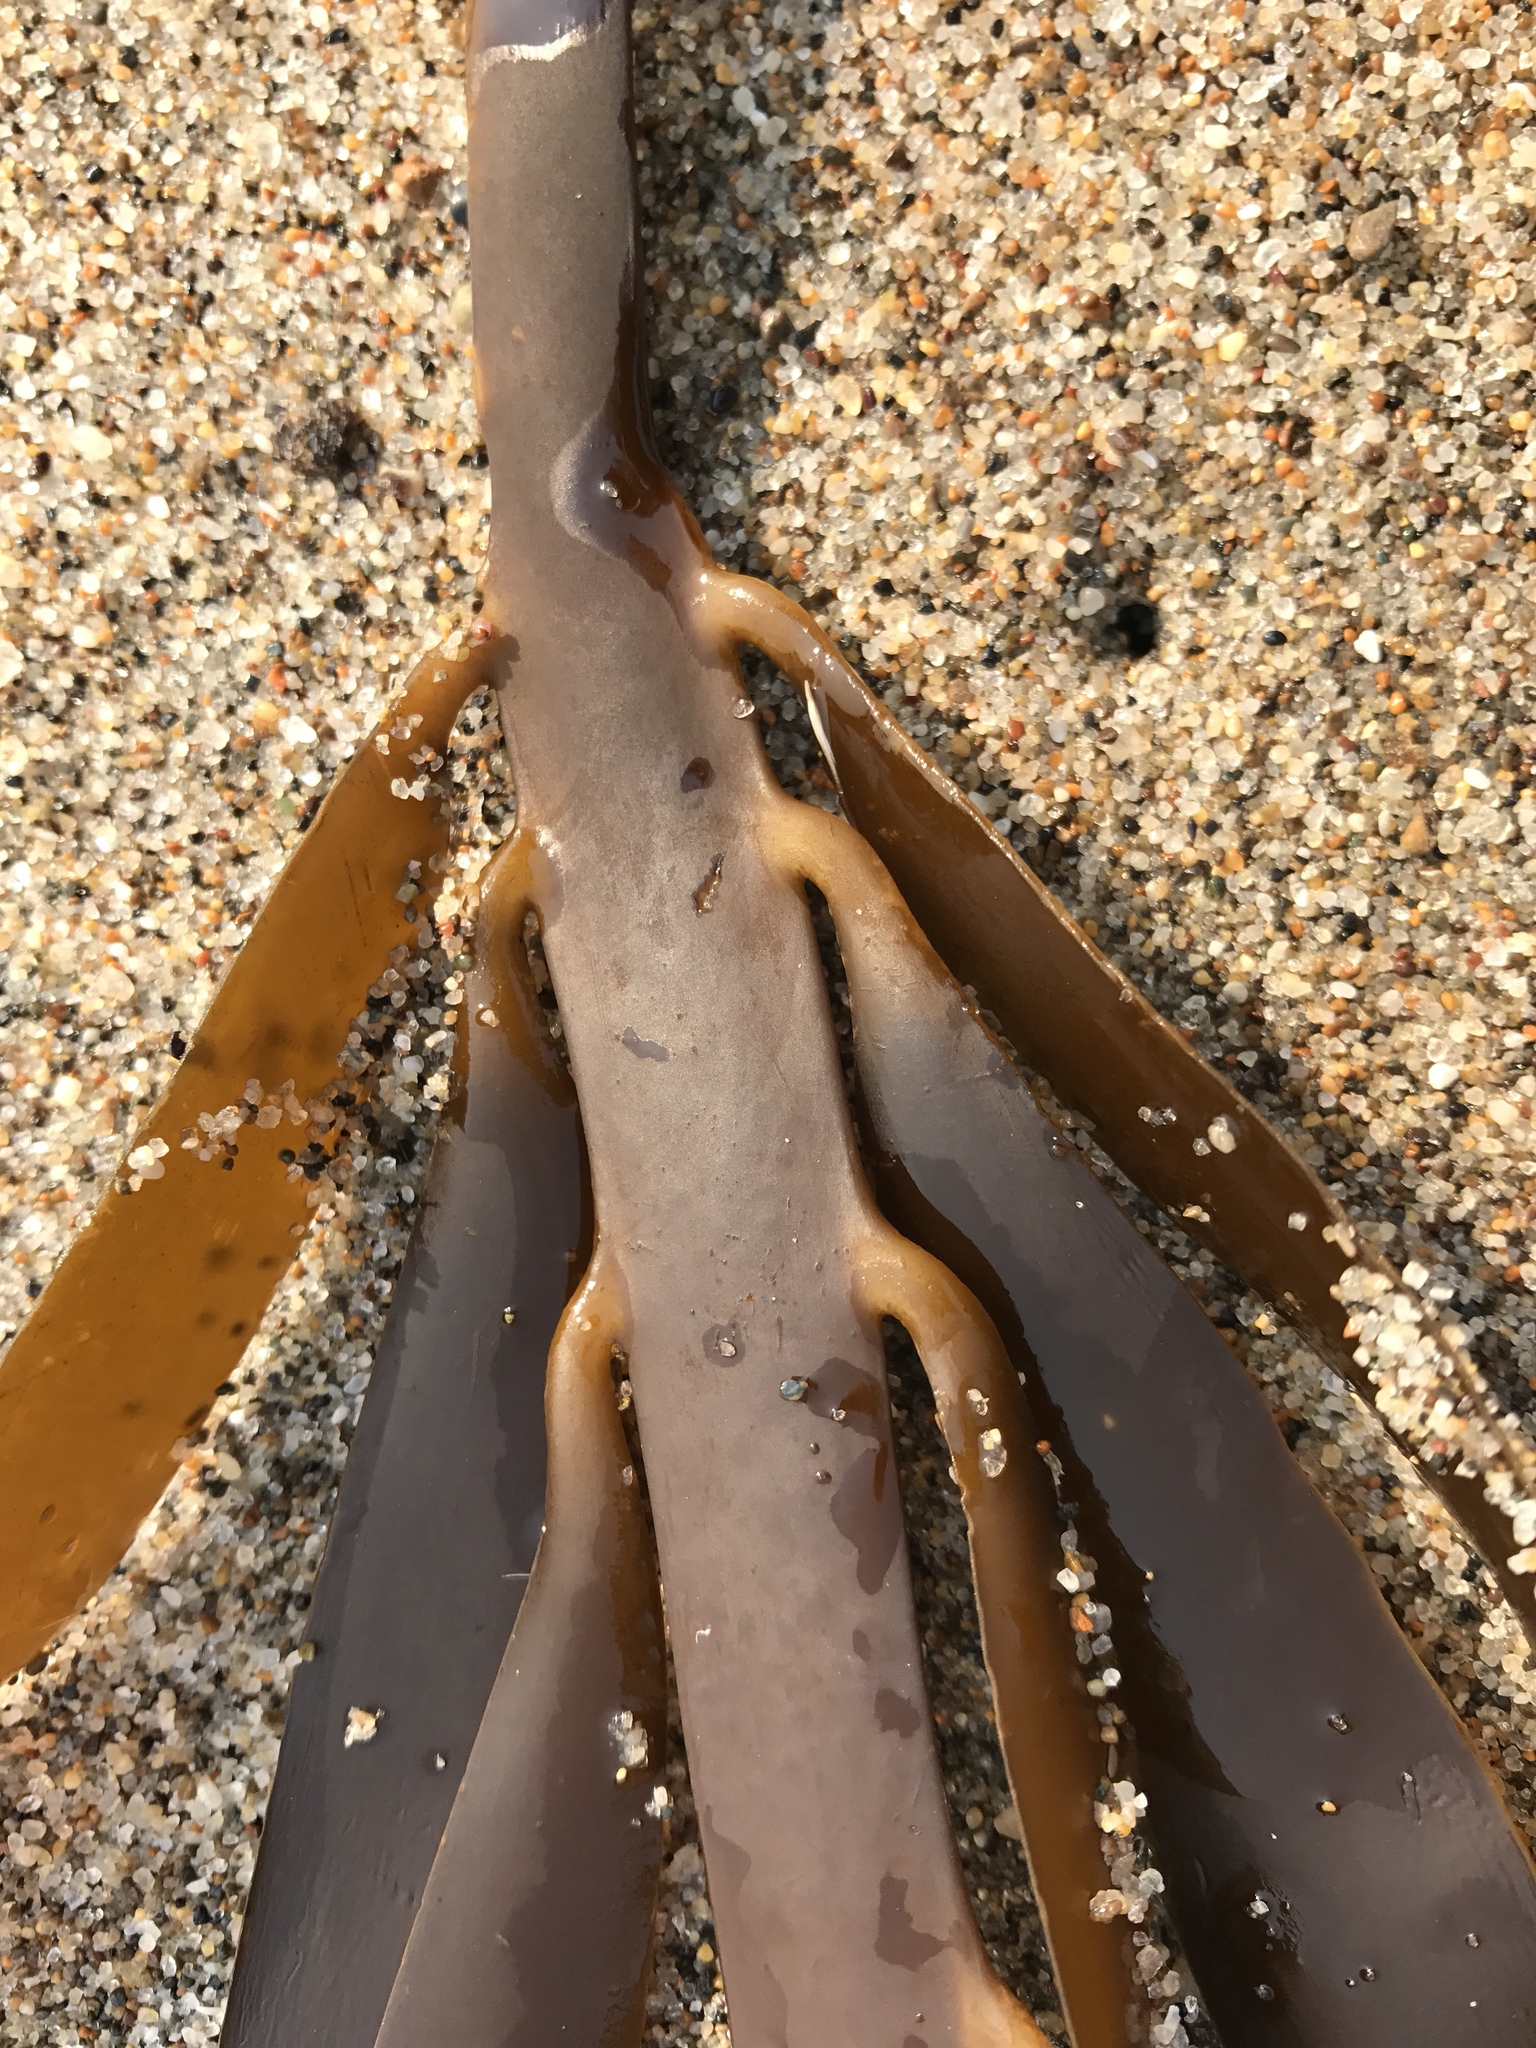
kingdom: Chromista
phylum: Ochrophyta
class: Phaeophyceae
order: Laminariales
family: Alariaceae
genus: Pterygophora
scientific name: Pterygophora californica
